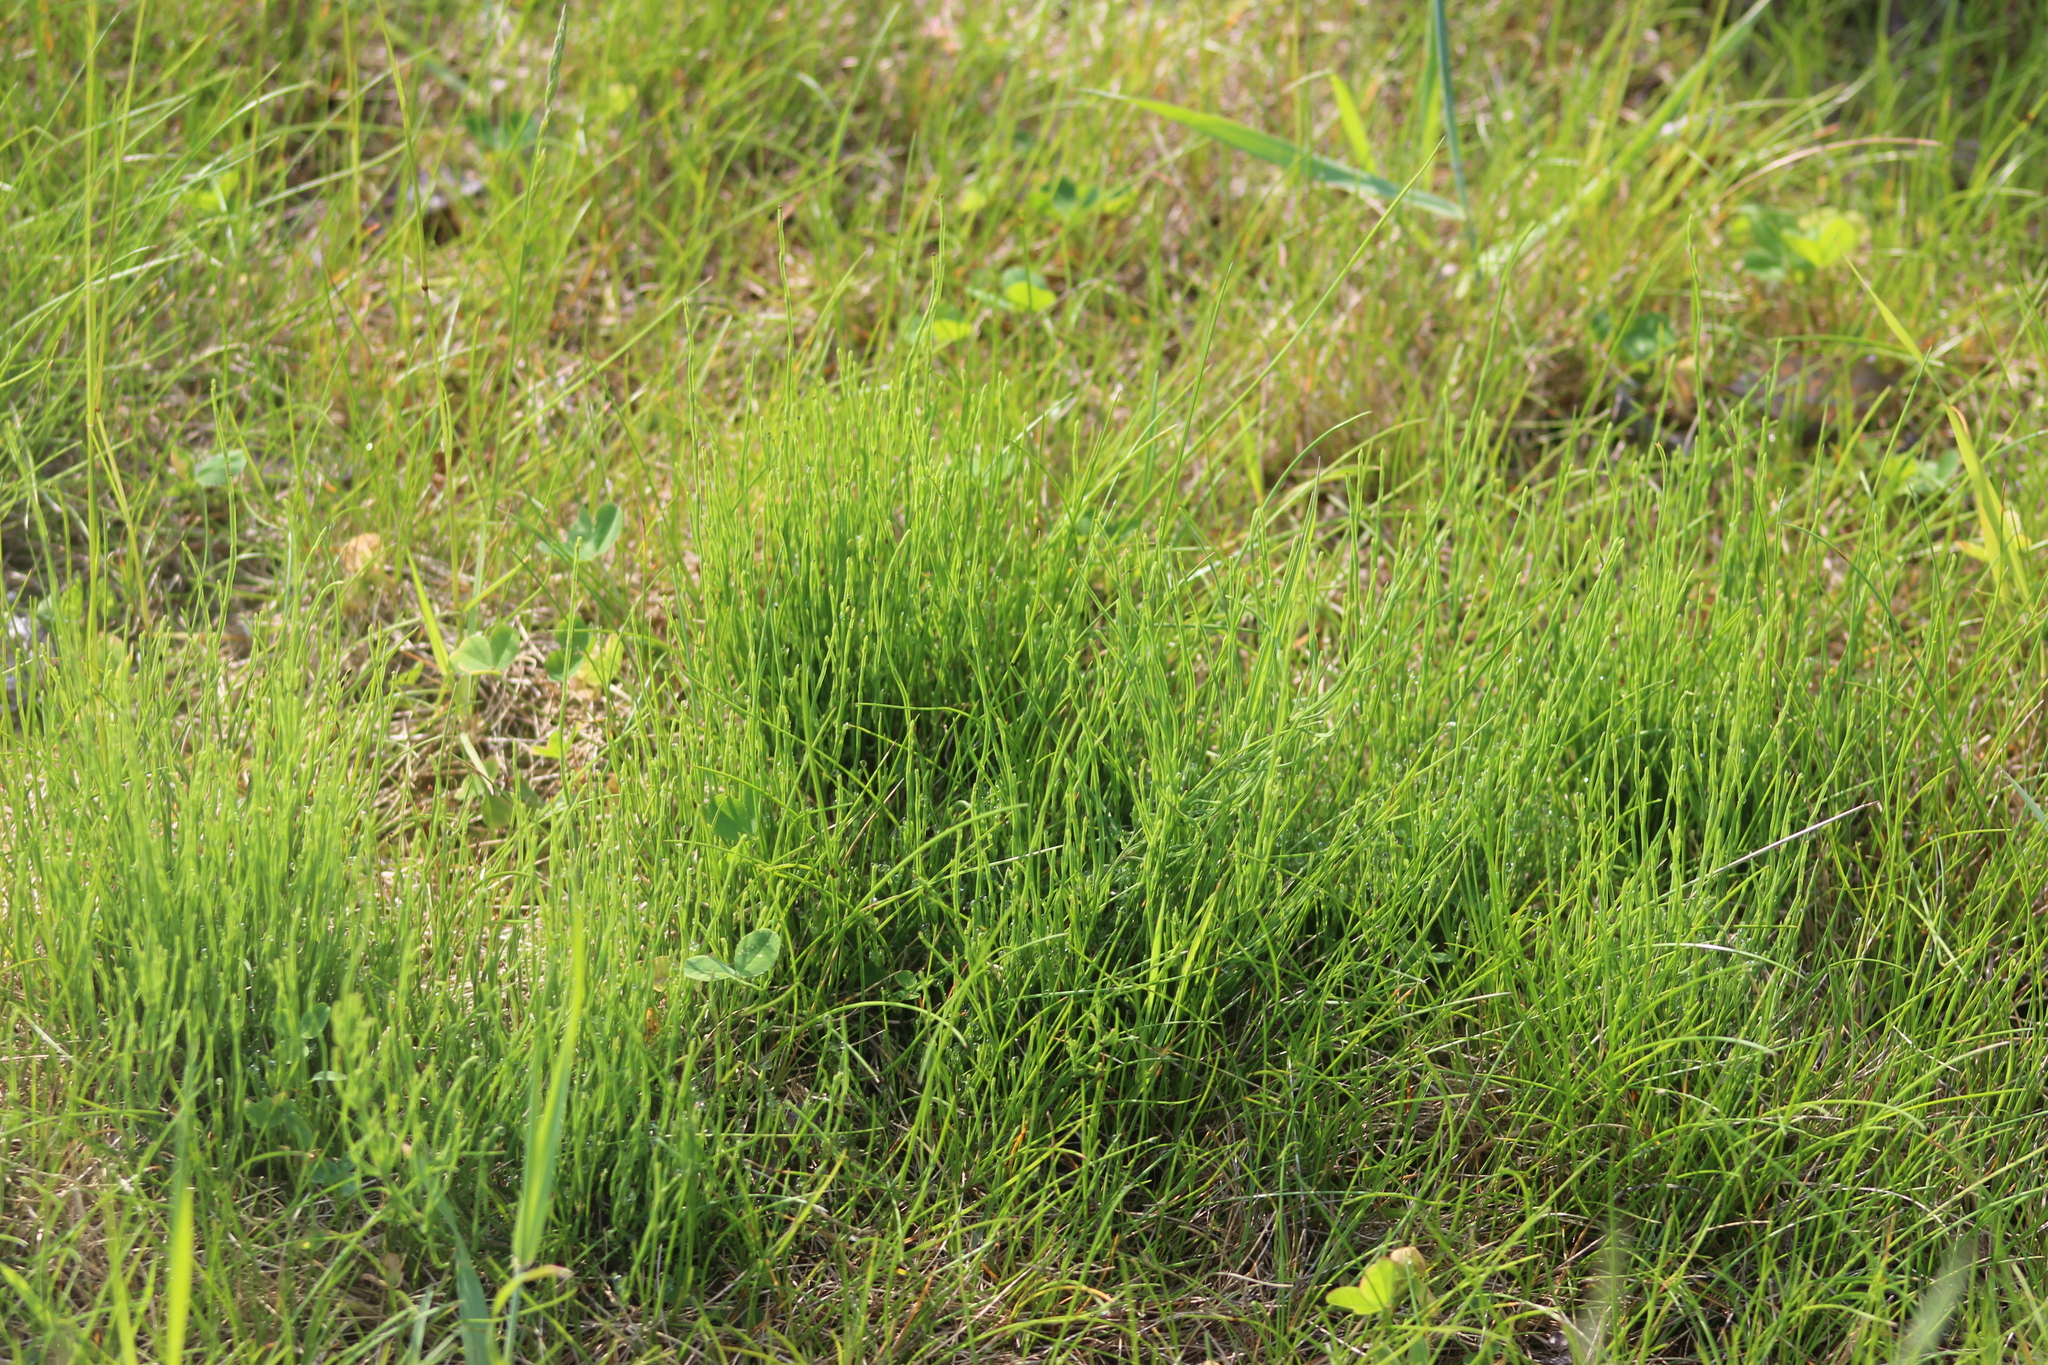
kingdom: Plantae
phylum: Tracheophyta
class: Polypodiopsida
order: Equisetales
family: Equisetaceae
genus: Equisetum
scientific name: Equisetum arvense
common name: Field horsetail
